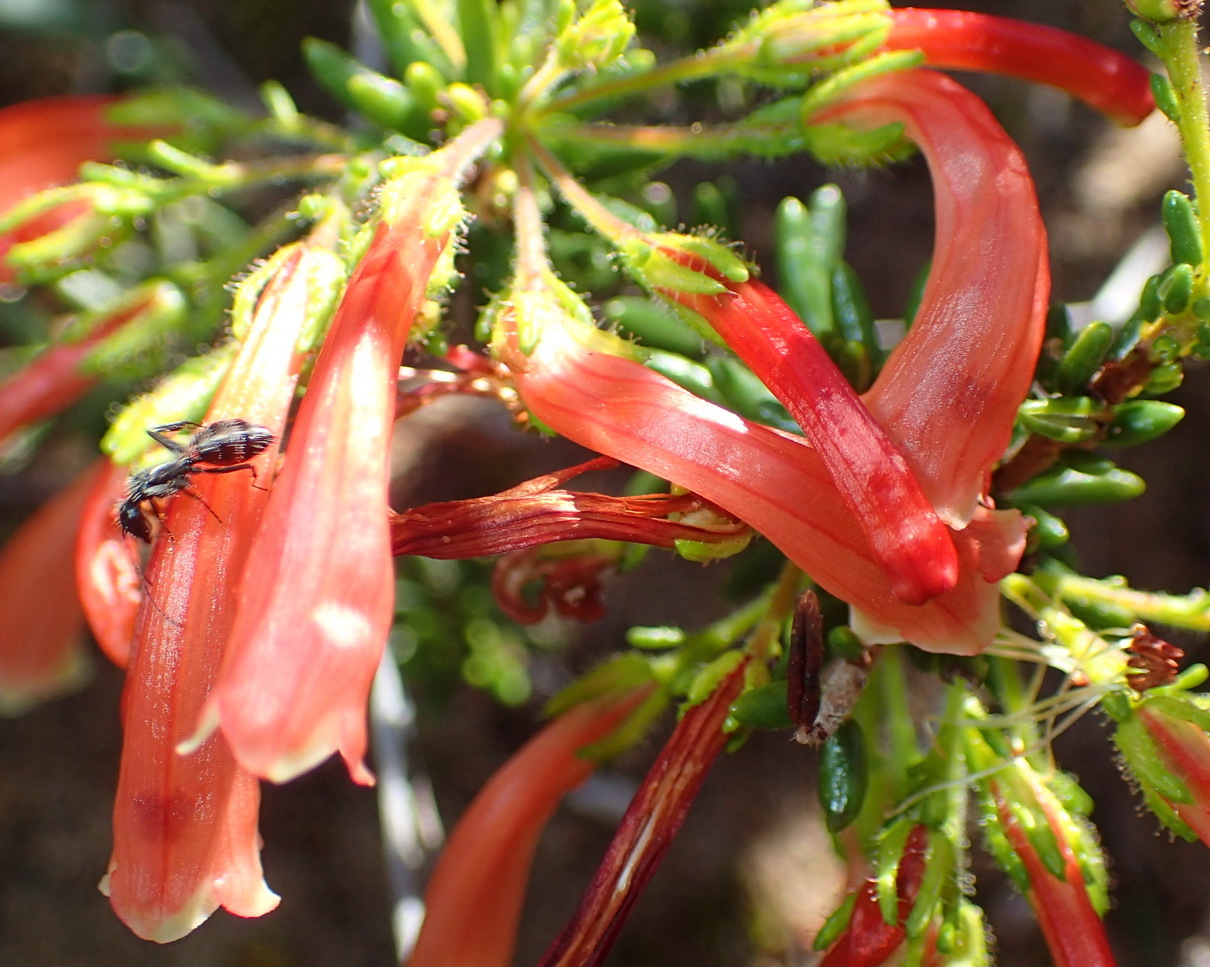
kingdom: Plantae
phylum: Tracheophyta
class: Magnoliopsida
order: Ericales
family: Ericaceae
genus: Erica
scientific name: Erica glandulosa
